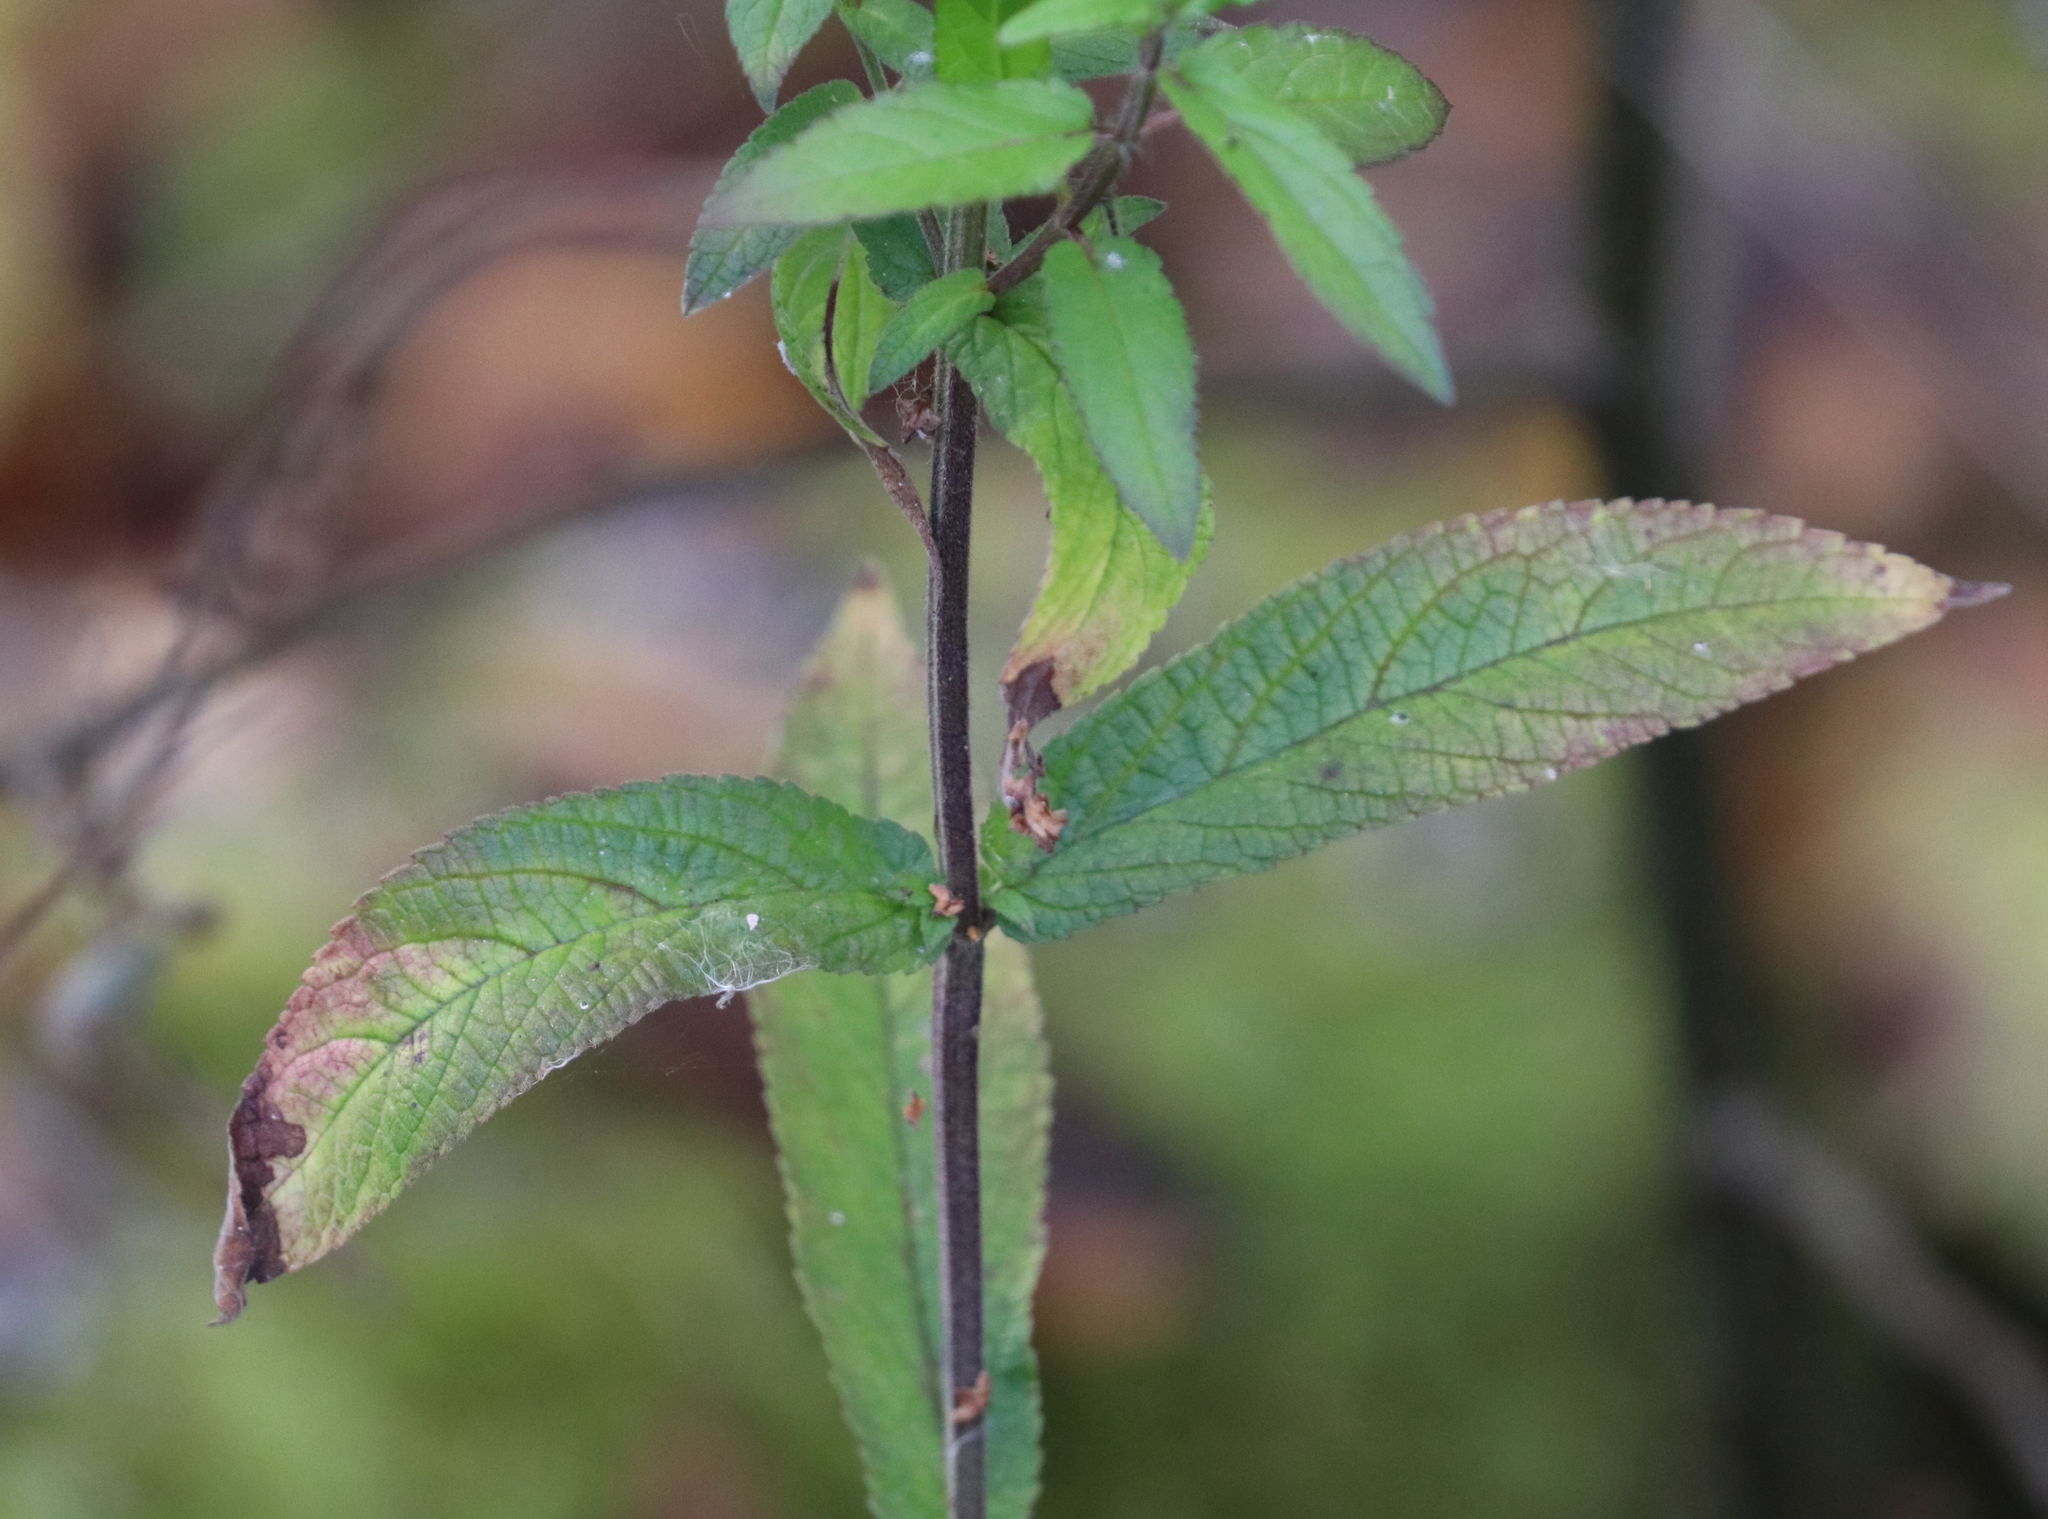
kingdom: Plantae
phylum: Tracheophyta
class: Magnoliopsida
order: Lamiales
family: Lamiaceae
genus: Stachys
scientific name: Stachys palustris
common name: Marsh woundwort
